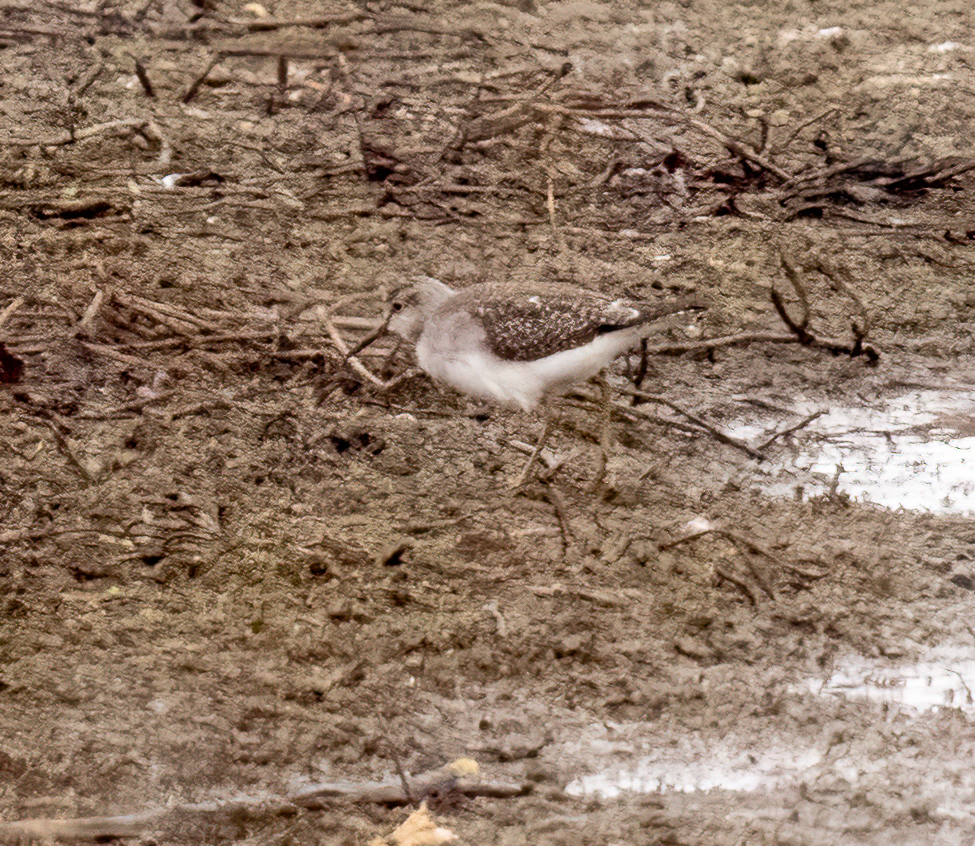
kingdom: Animalia
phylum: Chordata
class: Aves
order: Charadriiformes
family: Scolopacidae
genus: Tringa
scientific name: Tringa glareola
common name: Wood sandpiper
